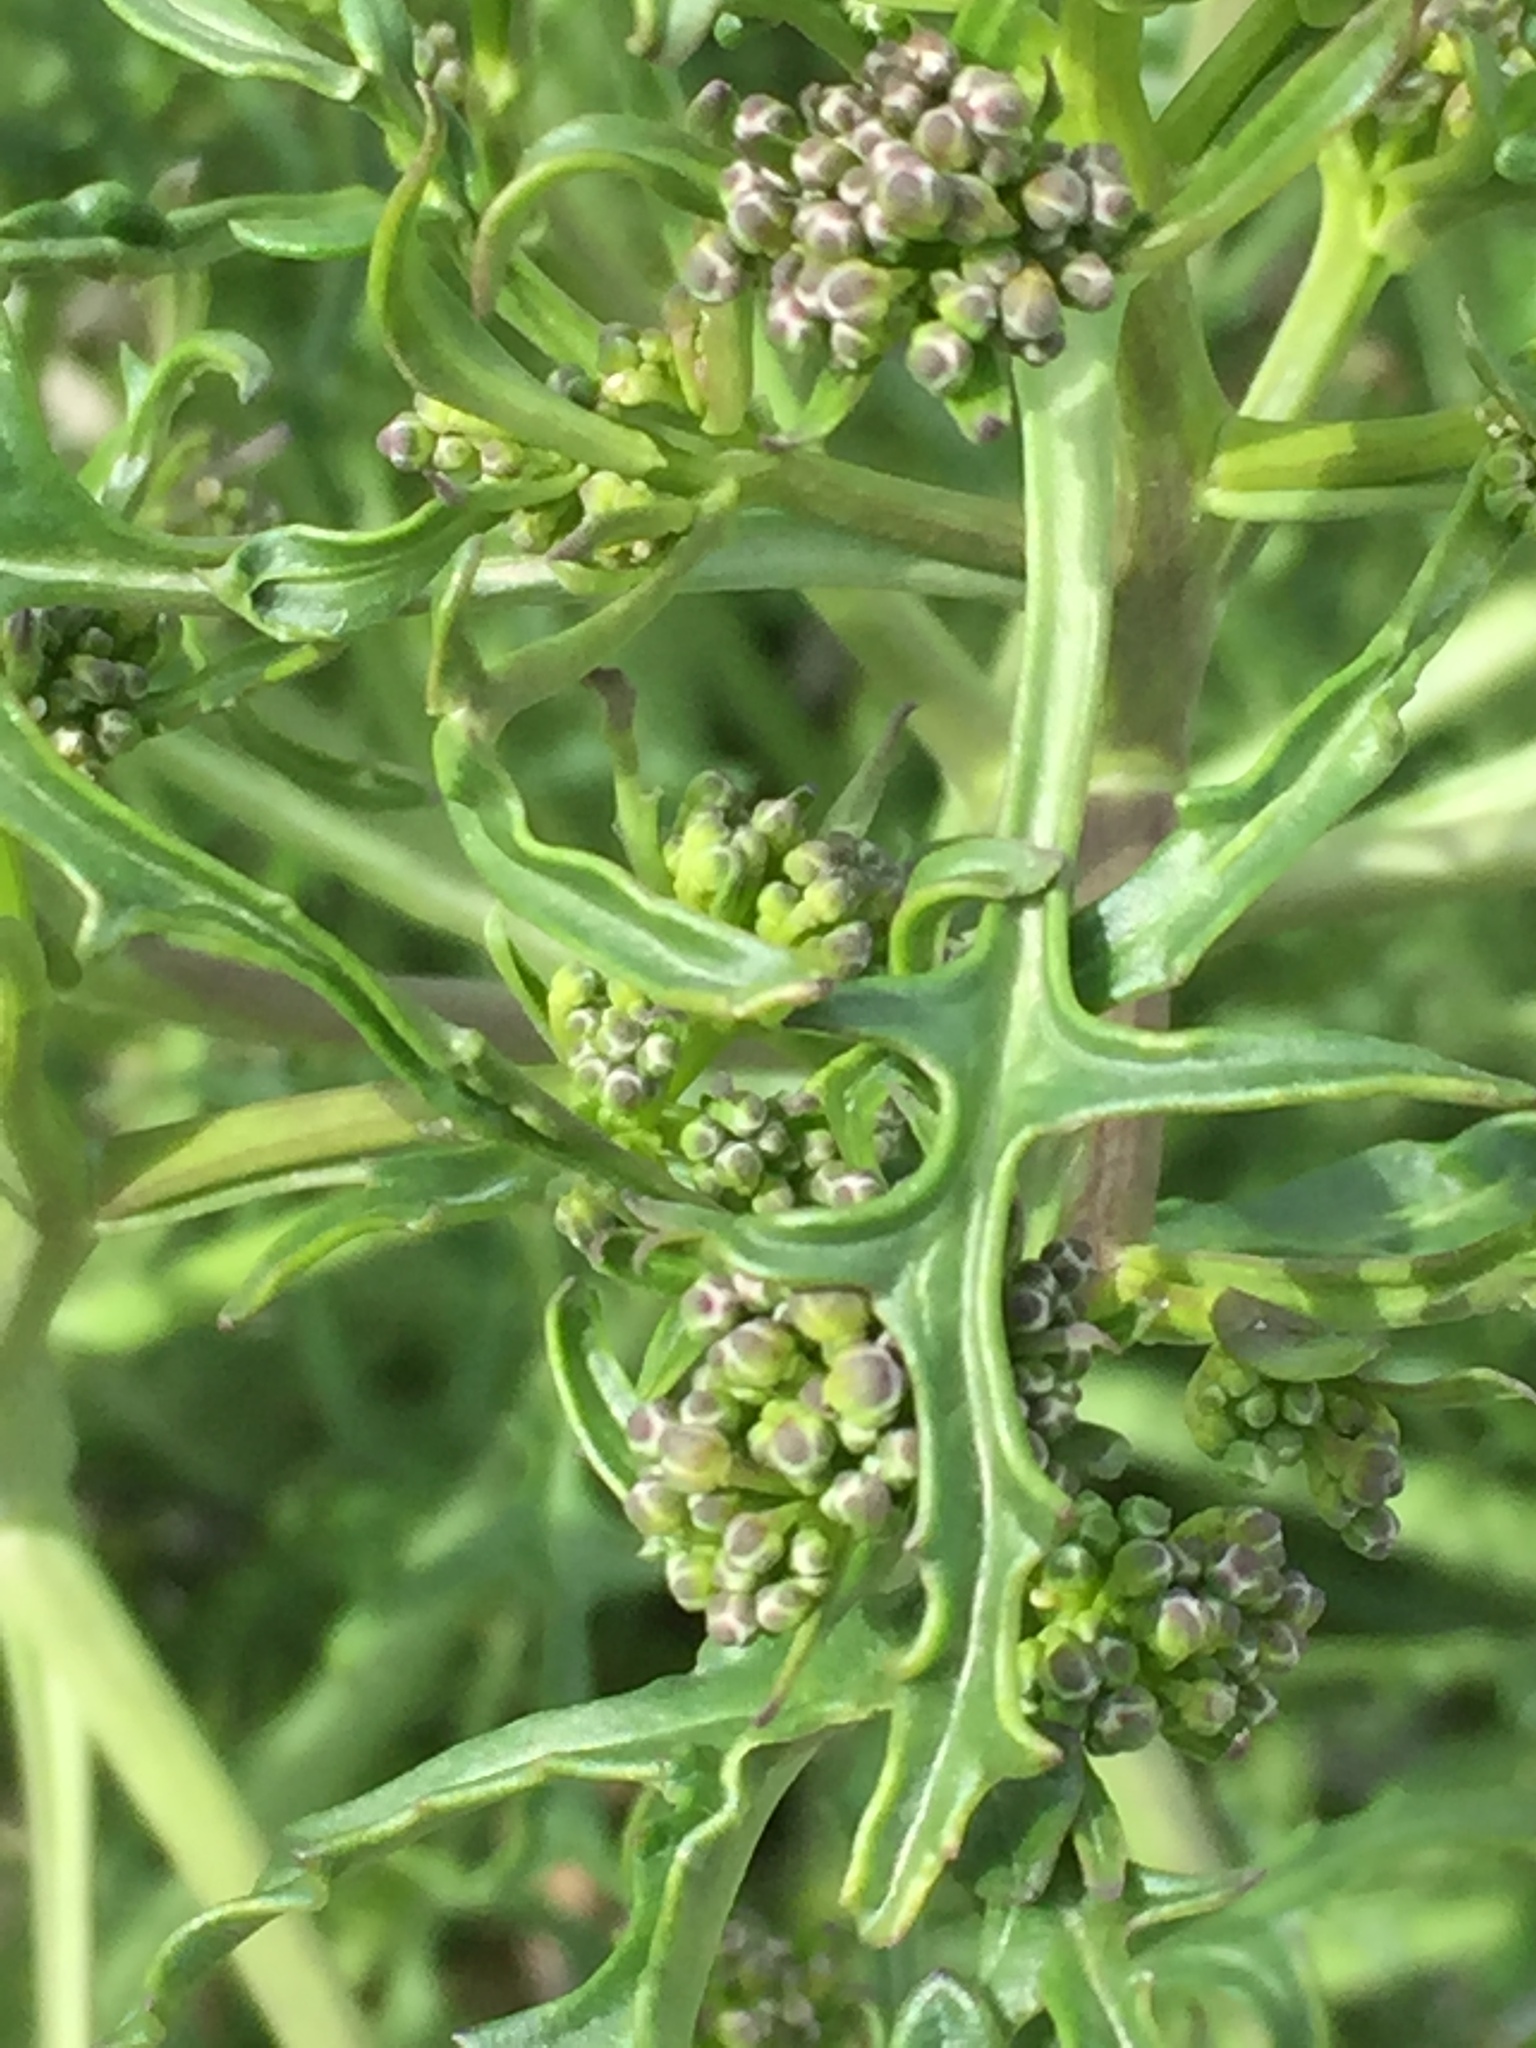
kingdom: Plantae
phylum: Tracheophyta
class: Magnoliopsida
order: Brassicales
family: Brassicaceae
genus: Crambe
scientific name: Crambe tataria
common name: Tartarian breadplant
